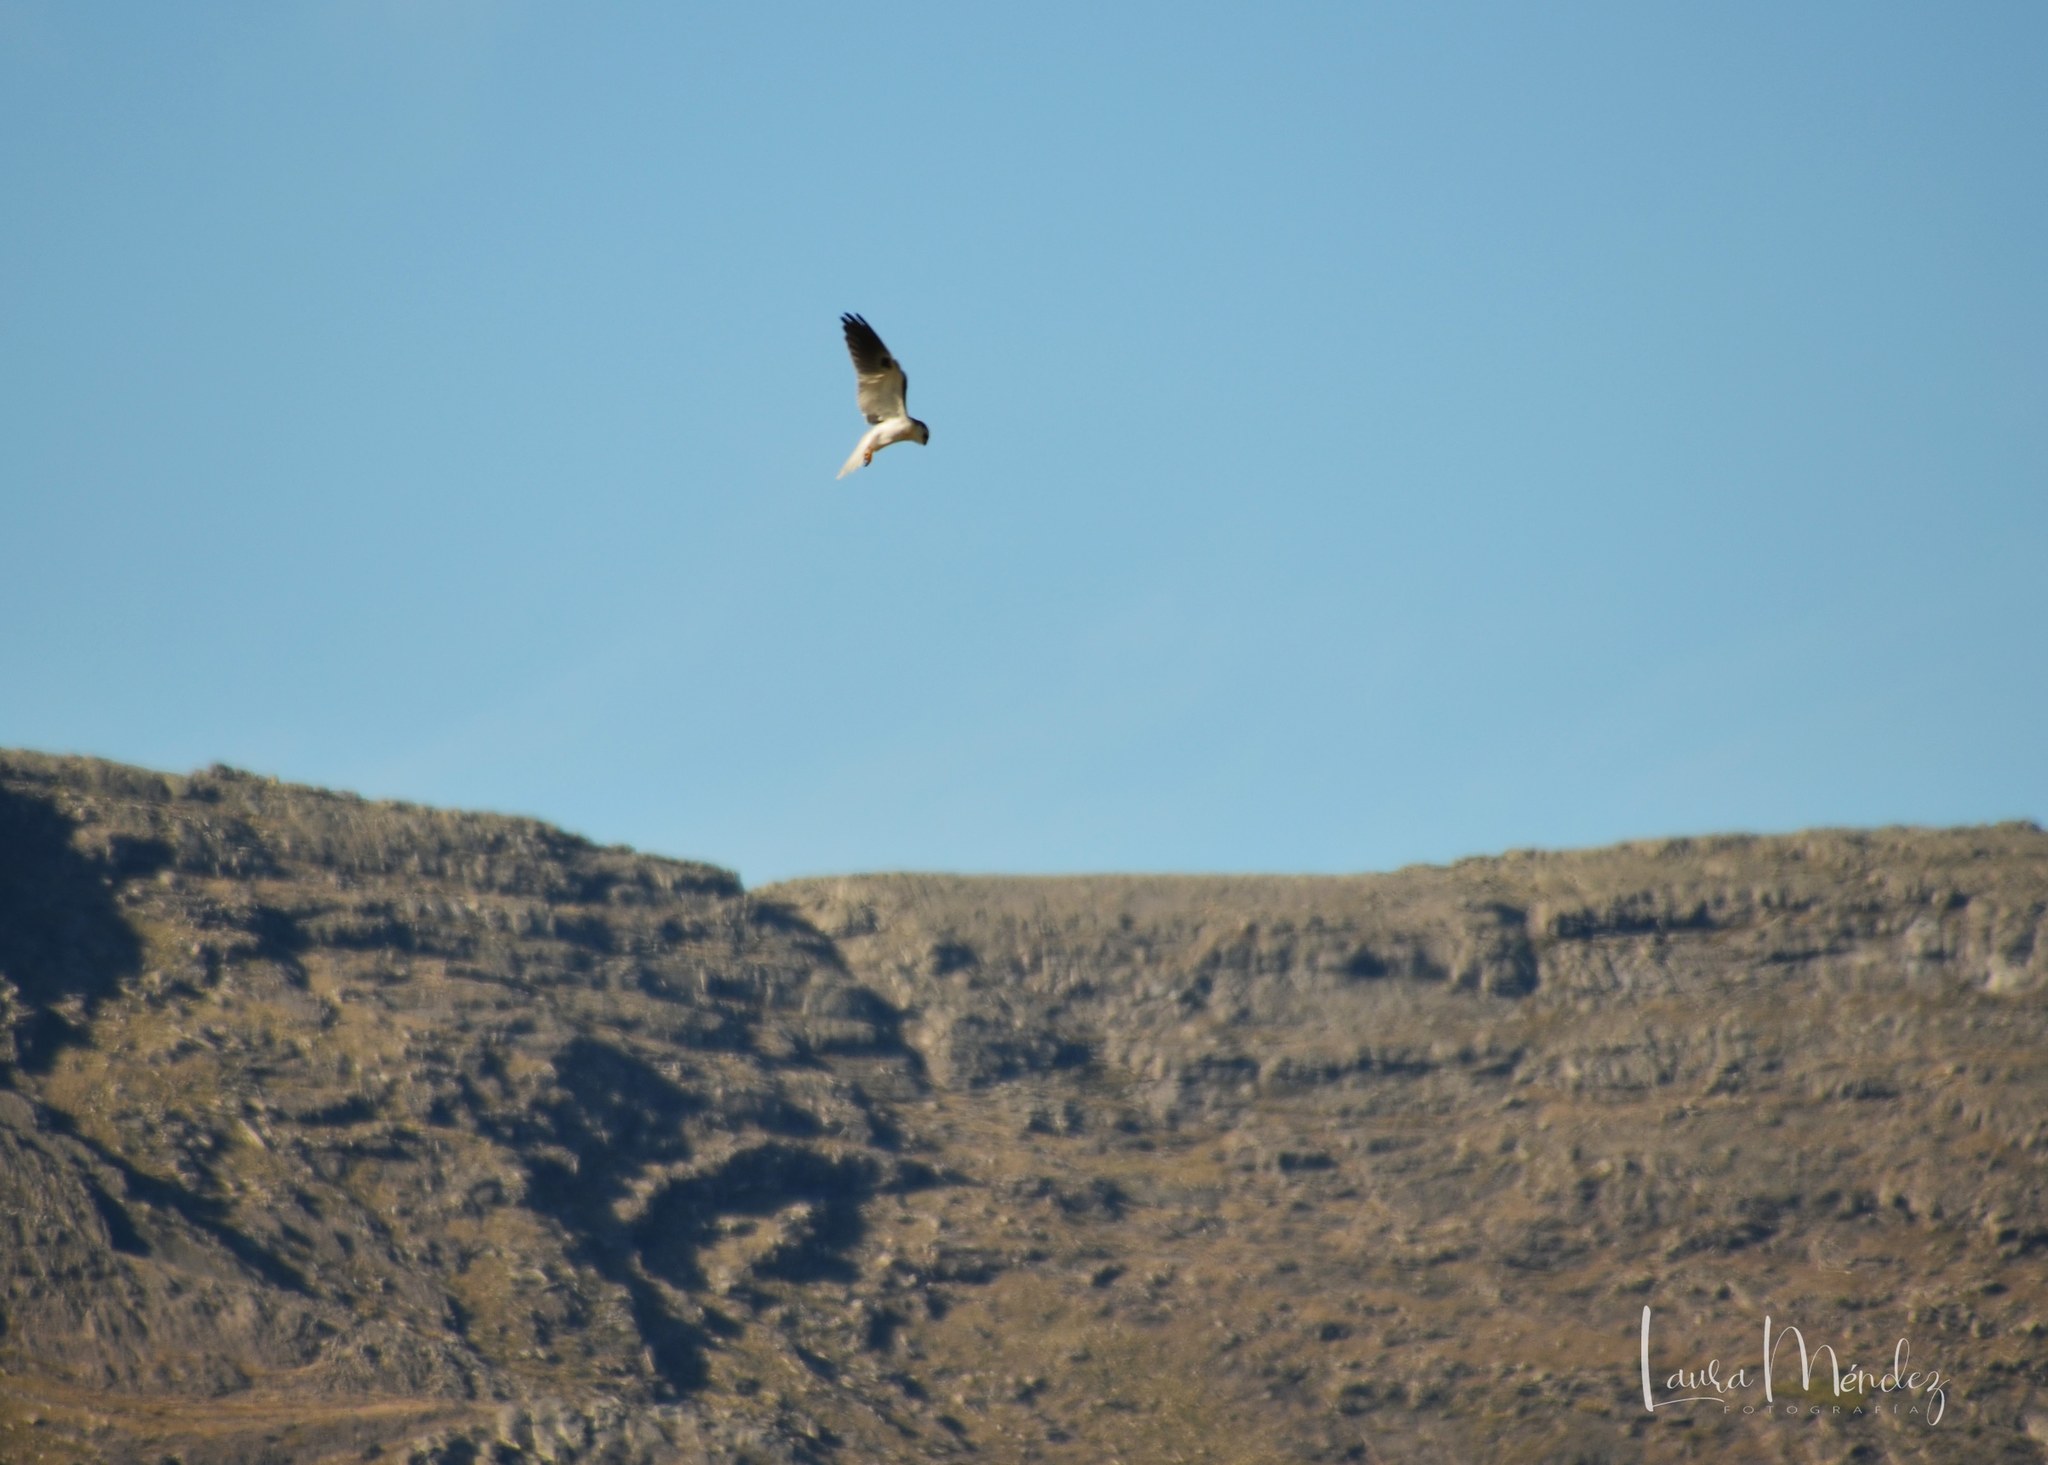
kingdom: Animalia
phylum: Chordata
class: Aves
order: Accipitriformes
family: Accipitridae
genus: Elanus
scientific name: Elanus leucurus
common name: White-tailed kite
